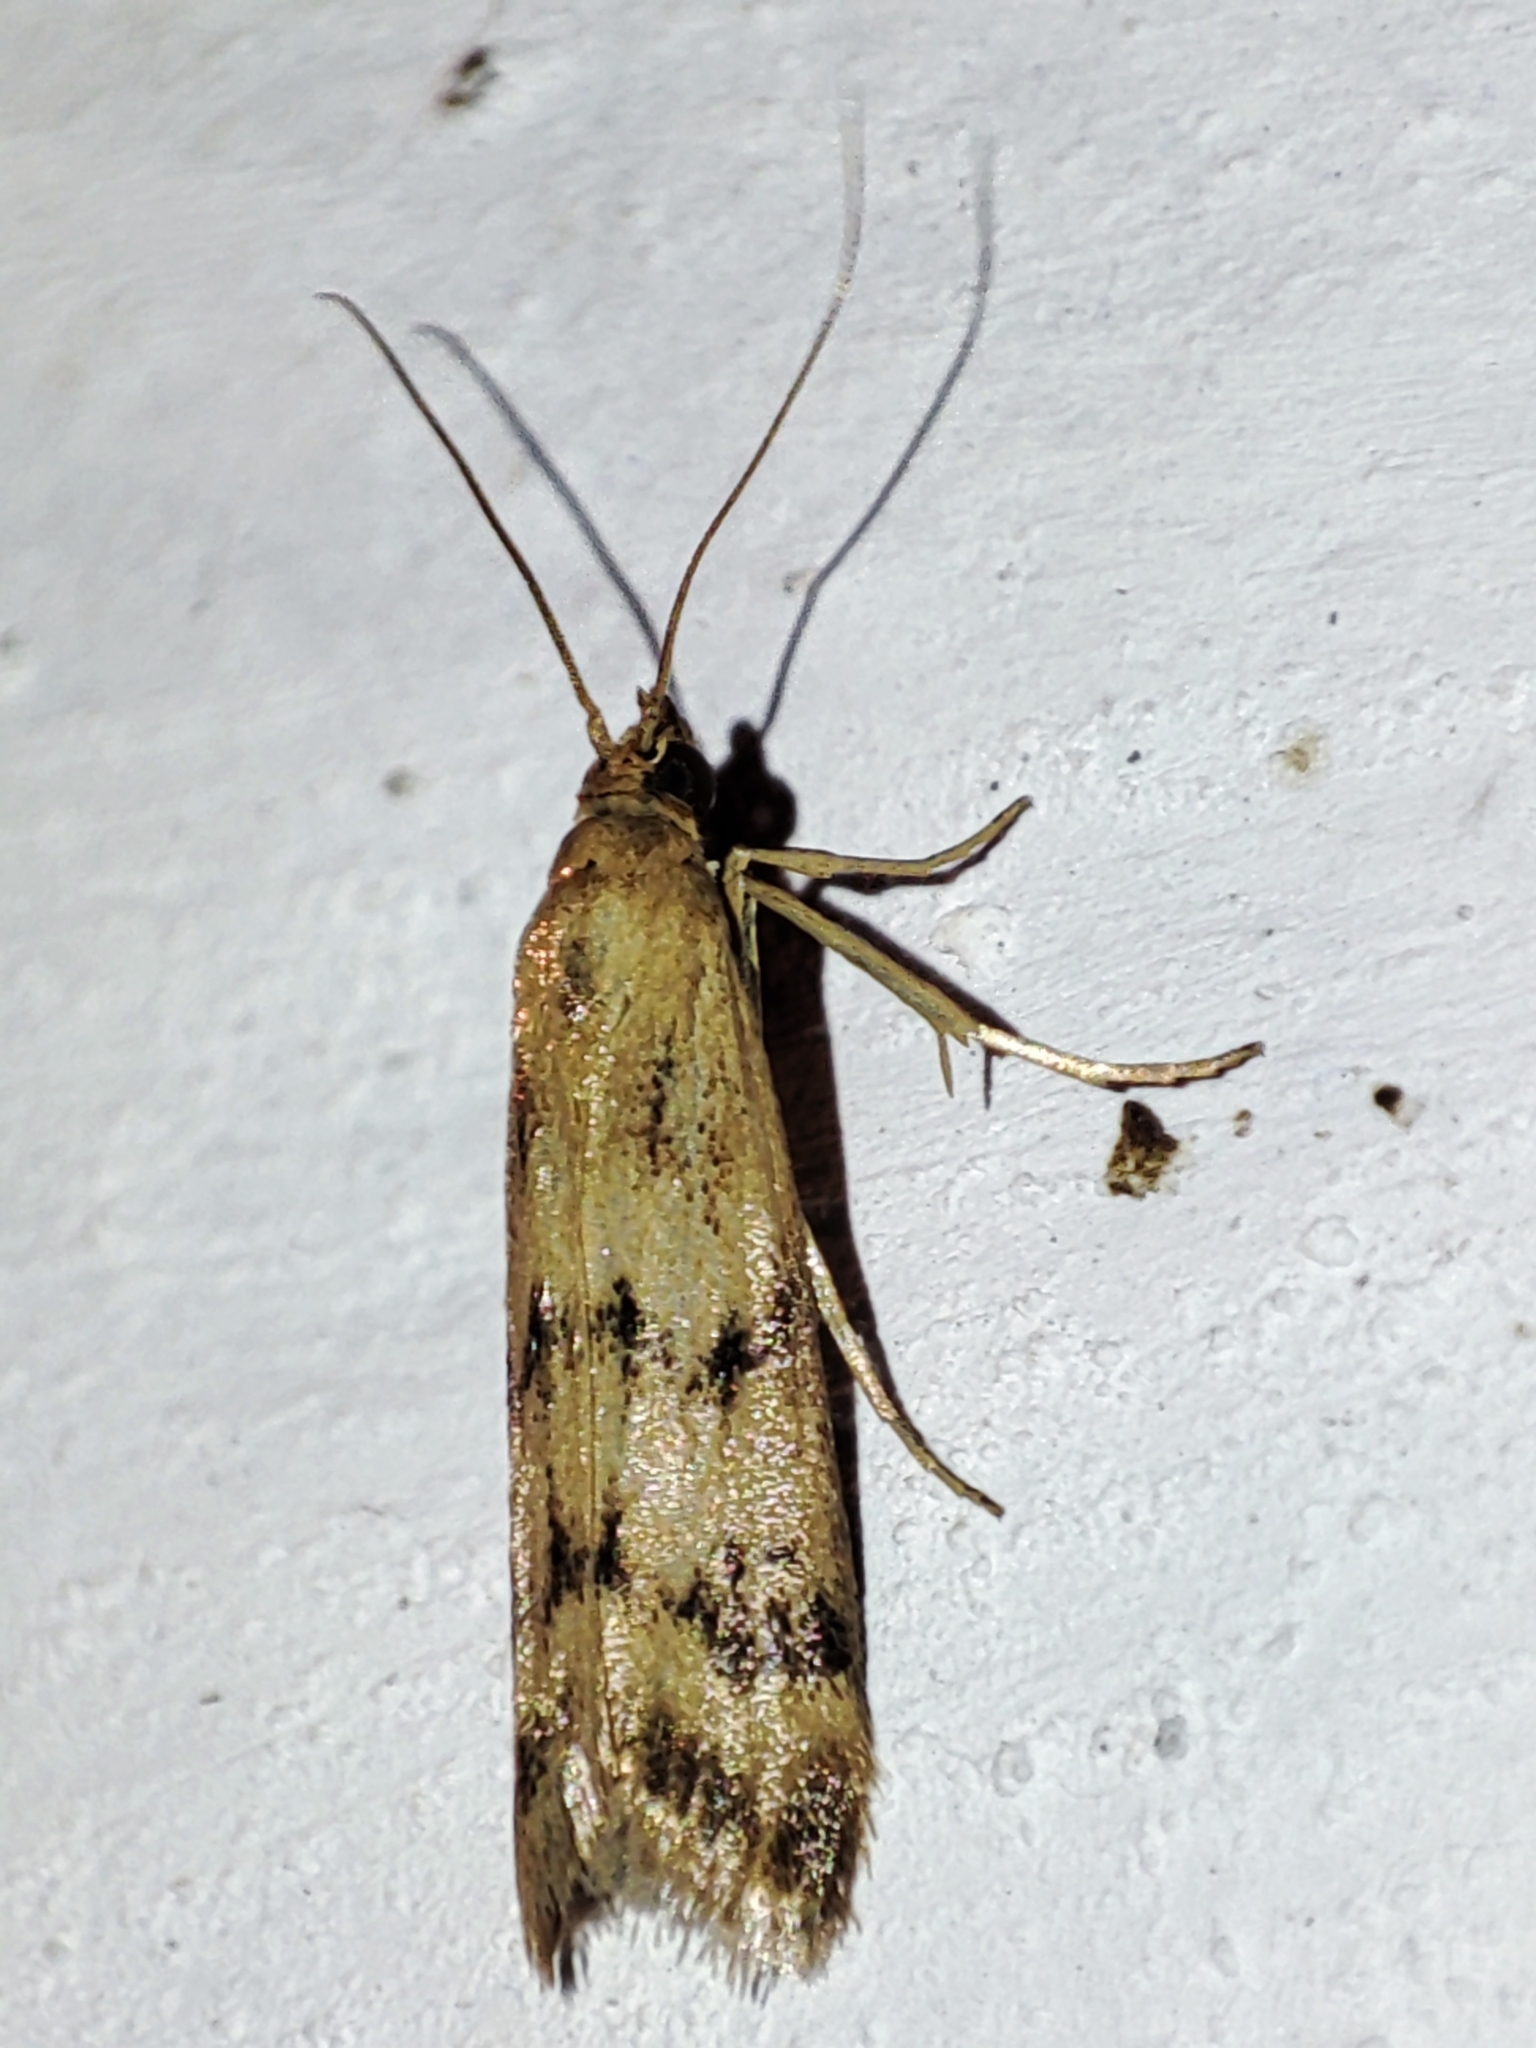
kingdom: Animalia
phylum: Arthropoda
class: Insecta
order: Lepidoptera
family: Pyralidae
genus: Homoeosoma
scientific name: Homoeosoma sinuella
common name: Twin-barred knot-horn
